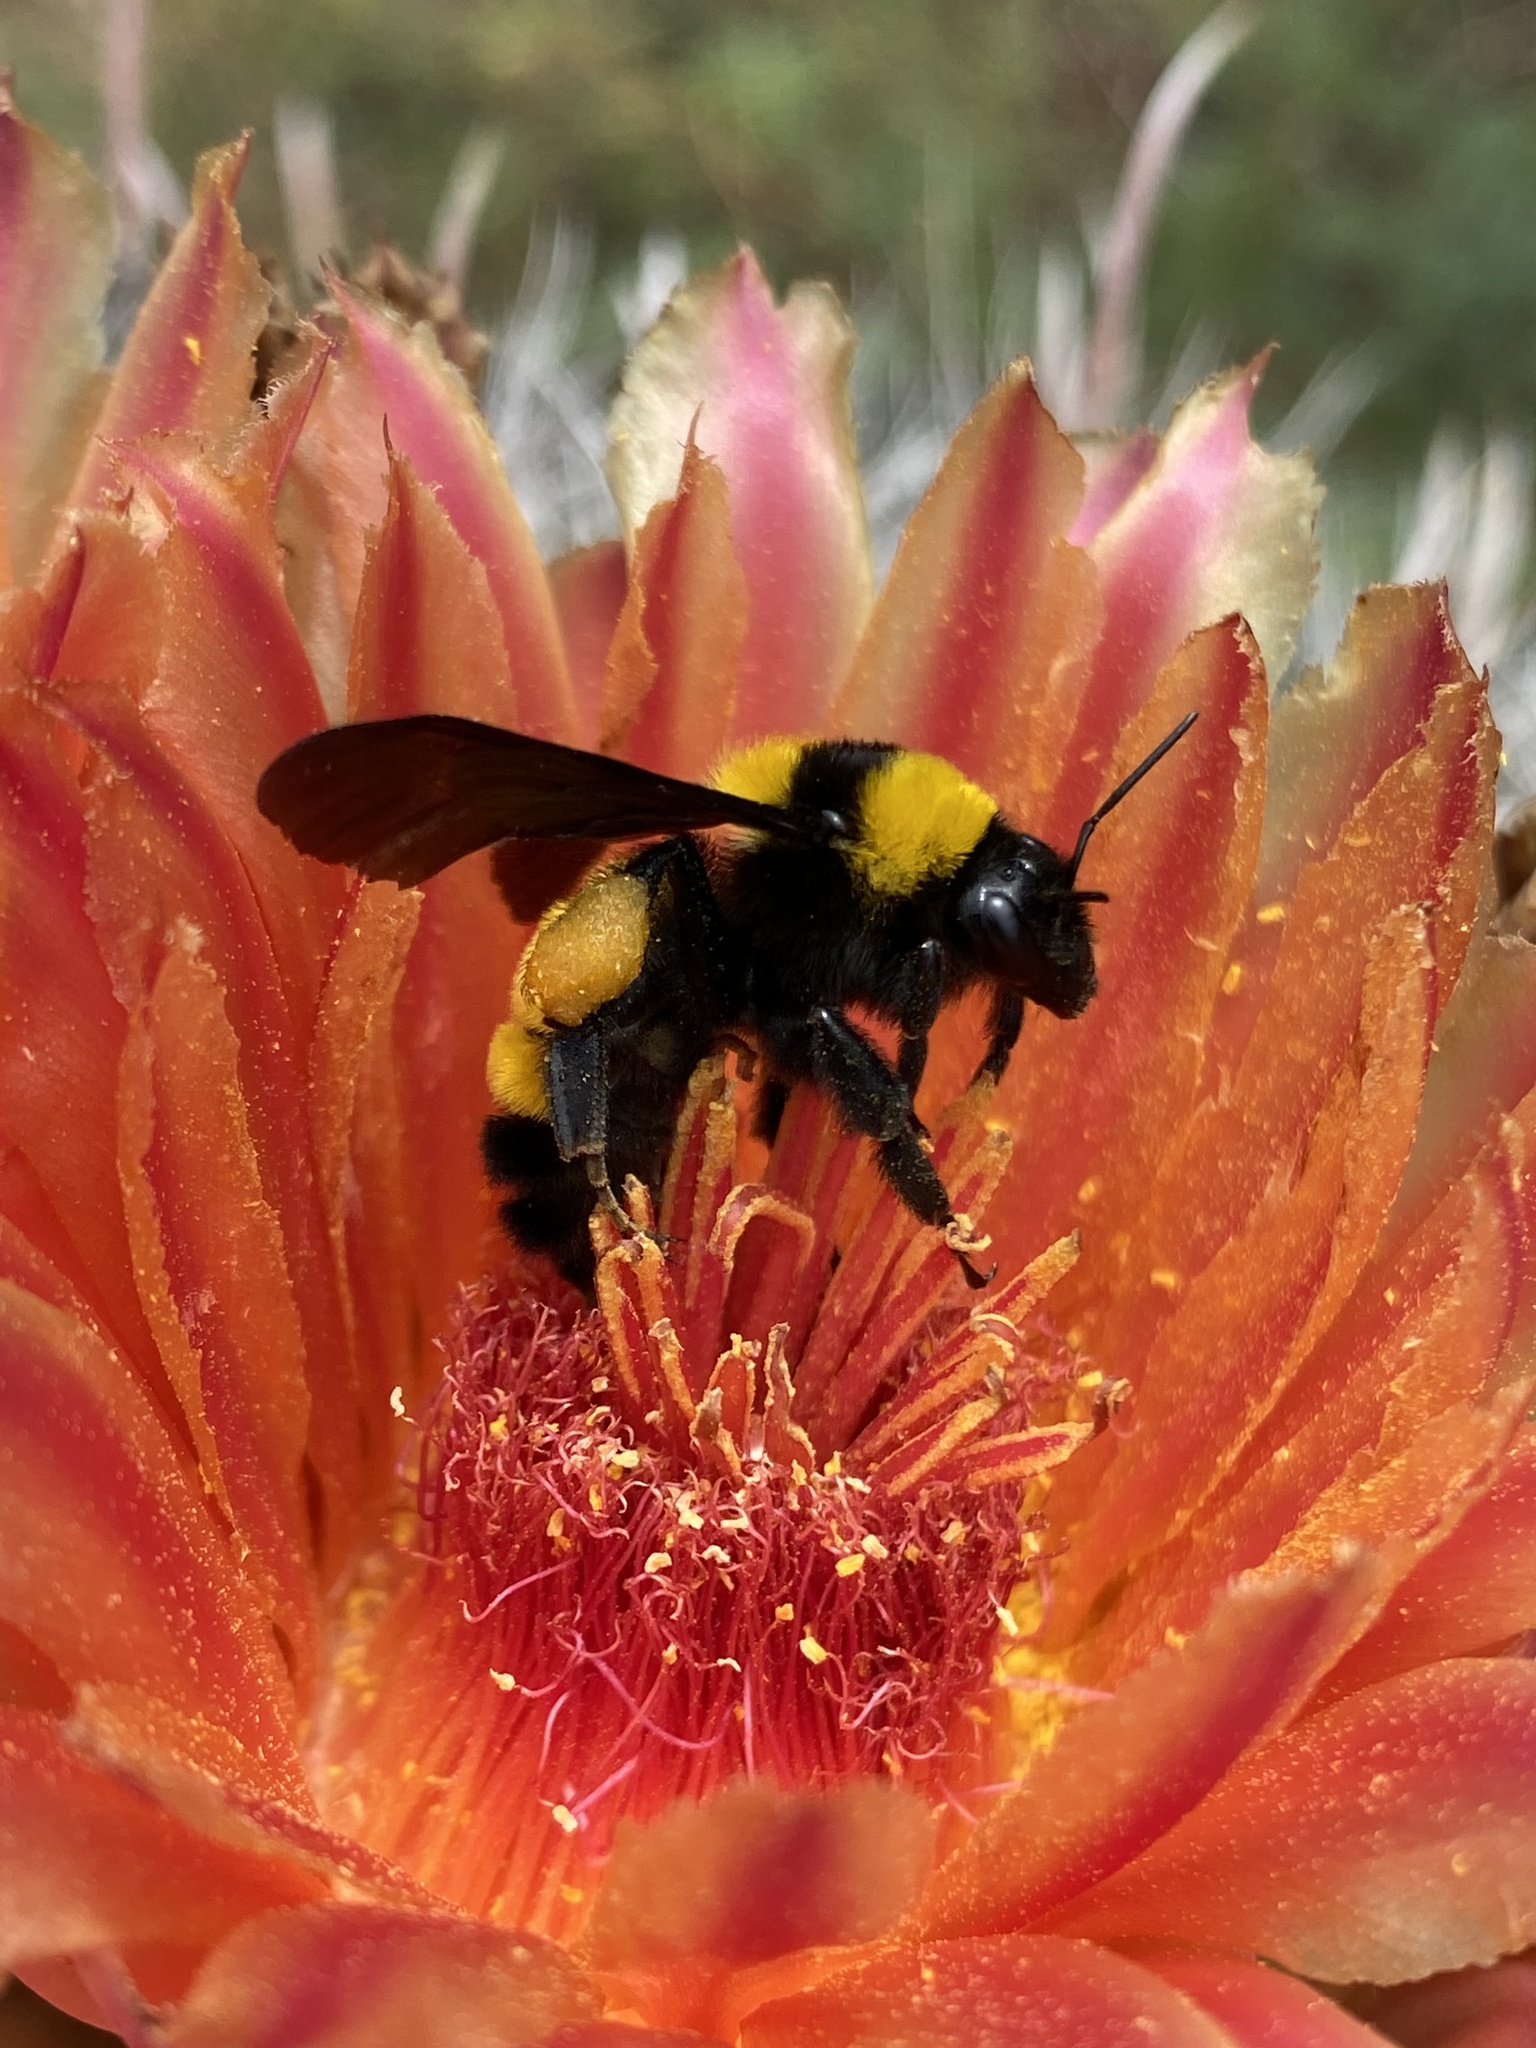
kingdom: Animalia
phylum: Arthropoda
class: Insecta
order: Hymenoptera
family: Apidae
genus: Bombus
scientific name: Bombus sonorus
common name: Sonoran bumble bee
